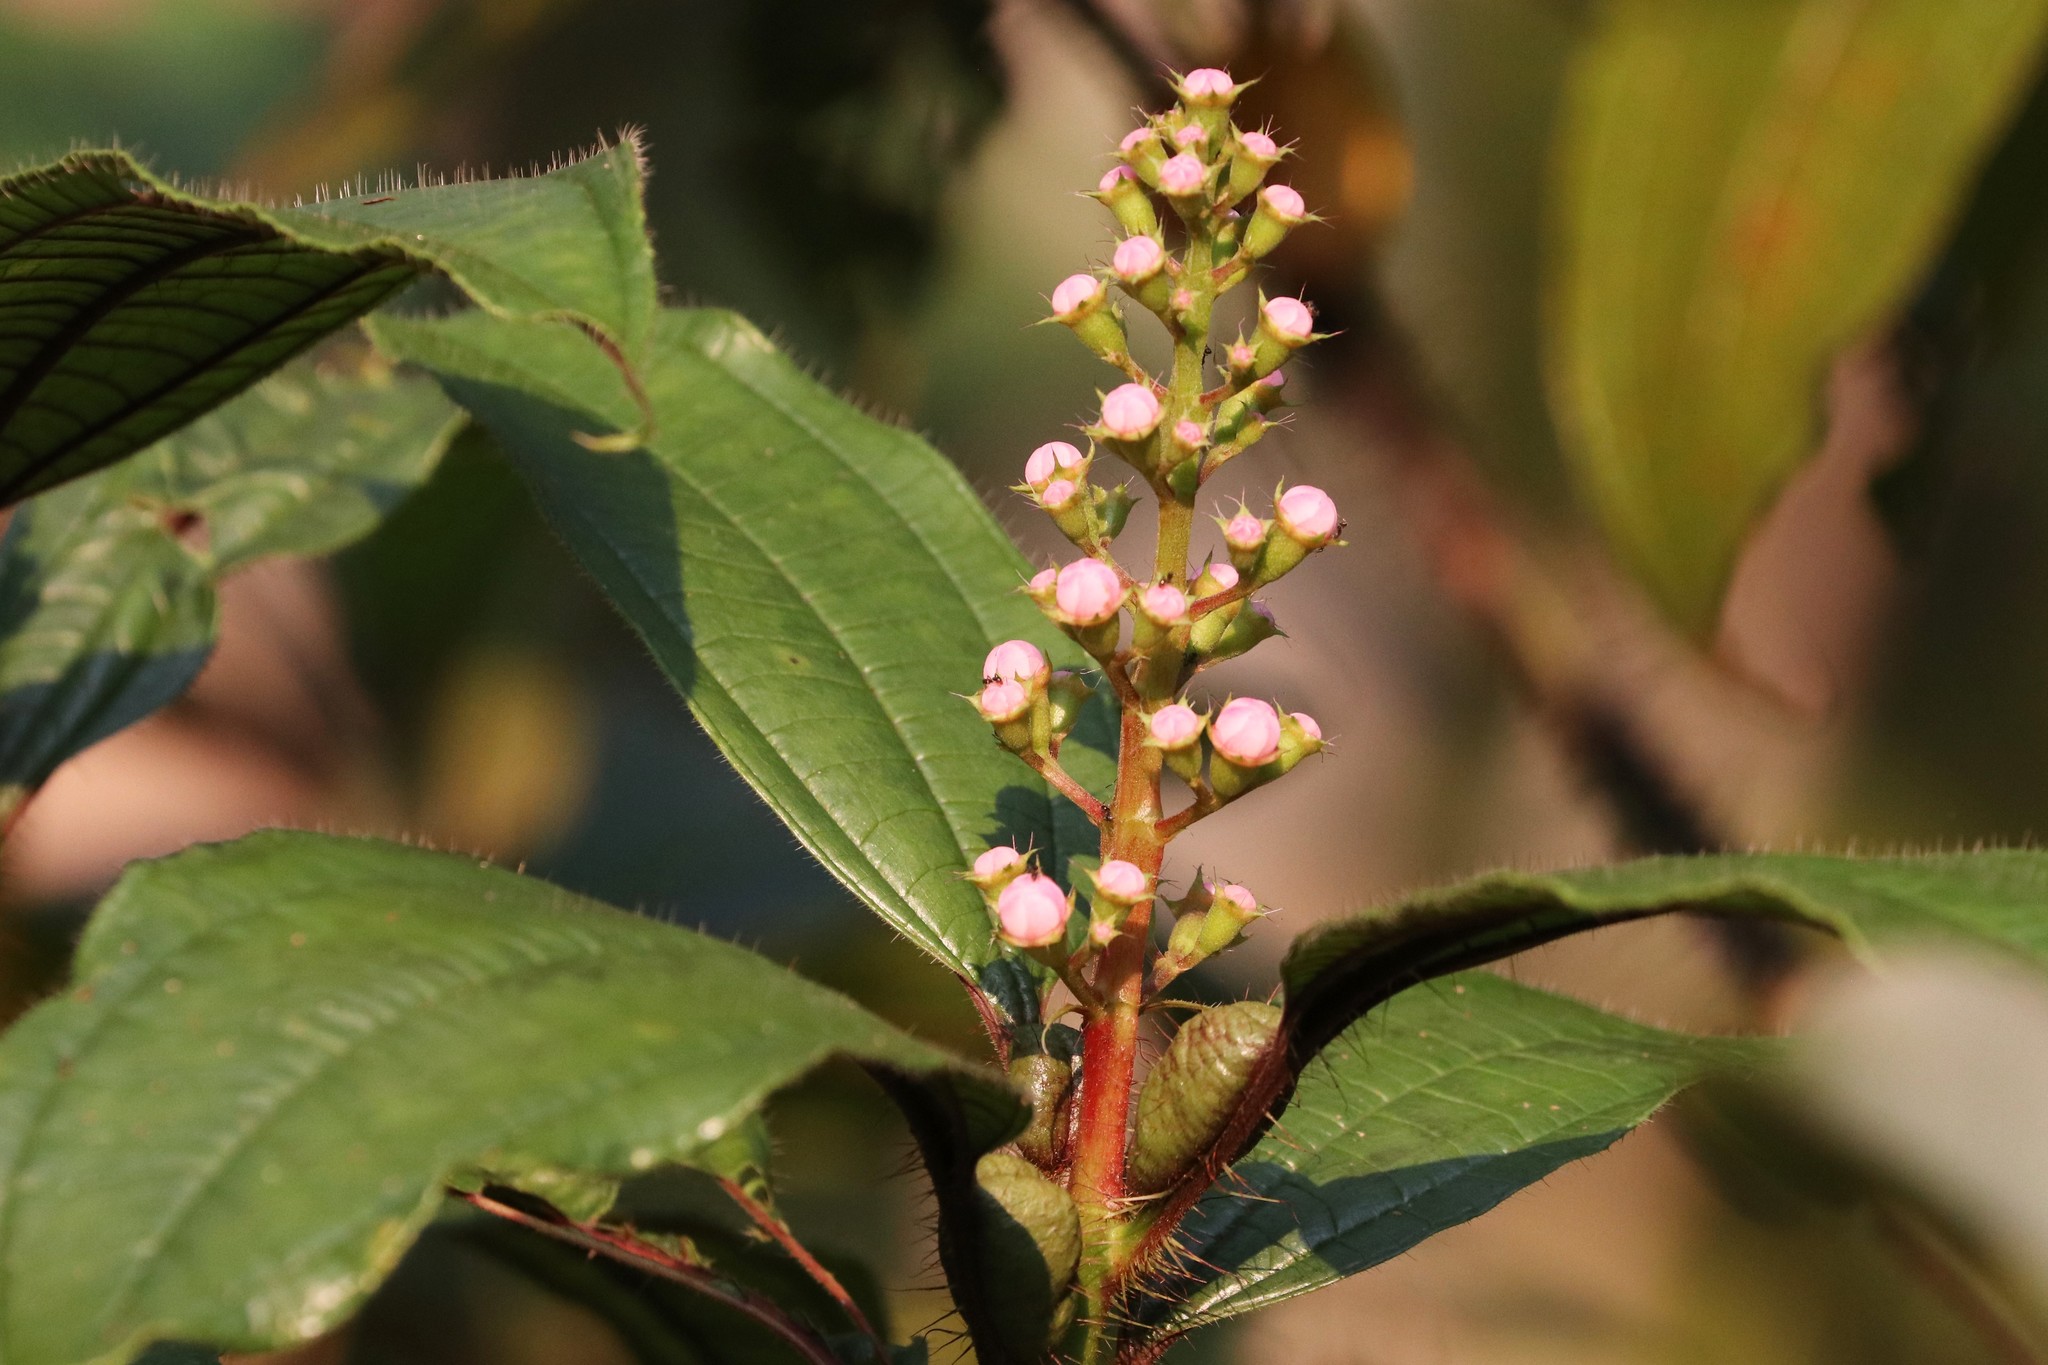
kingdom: Plantae
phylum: Tracheophyta
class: Magnoliopsida
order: Myrtales
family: Melastomataceae
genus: Miconia
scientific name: Miconia tococa
